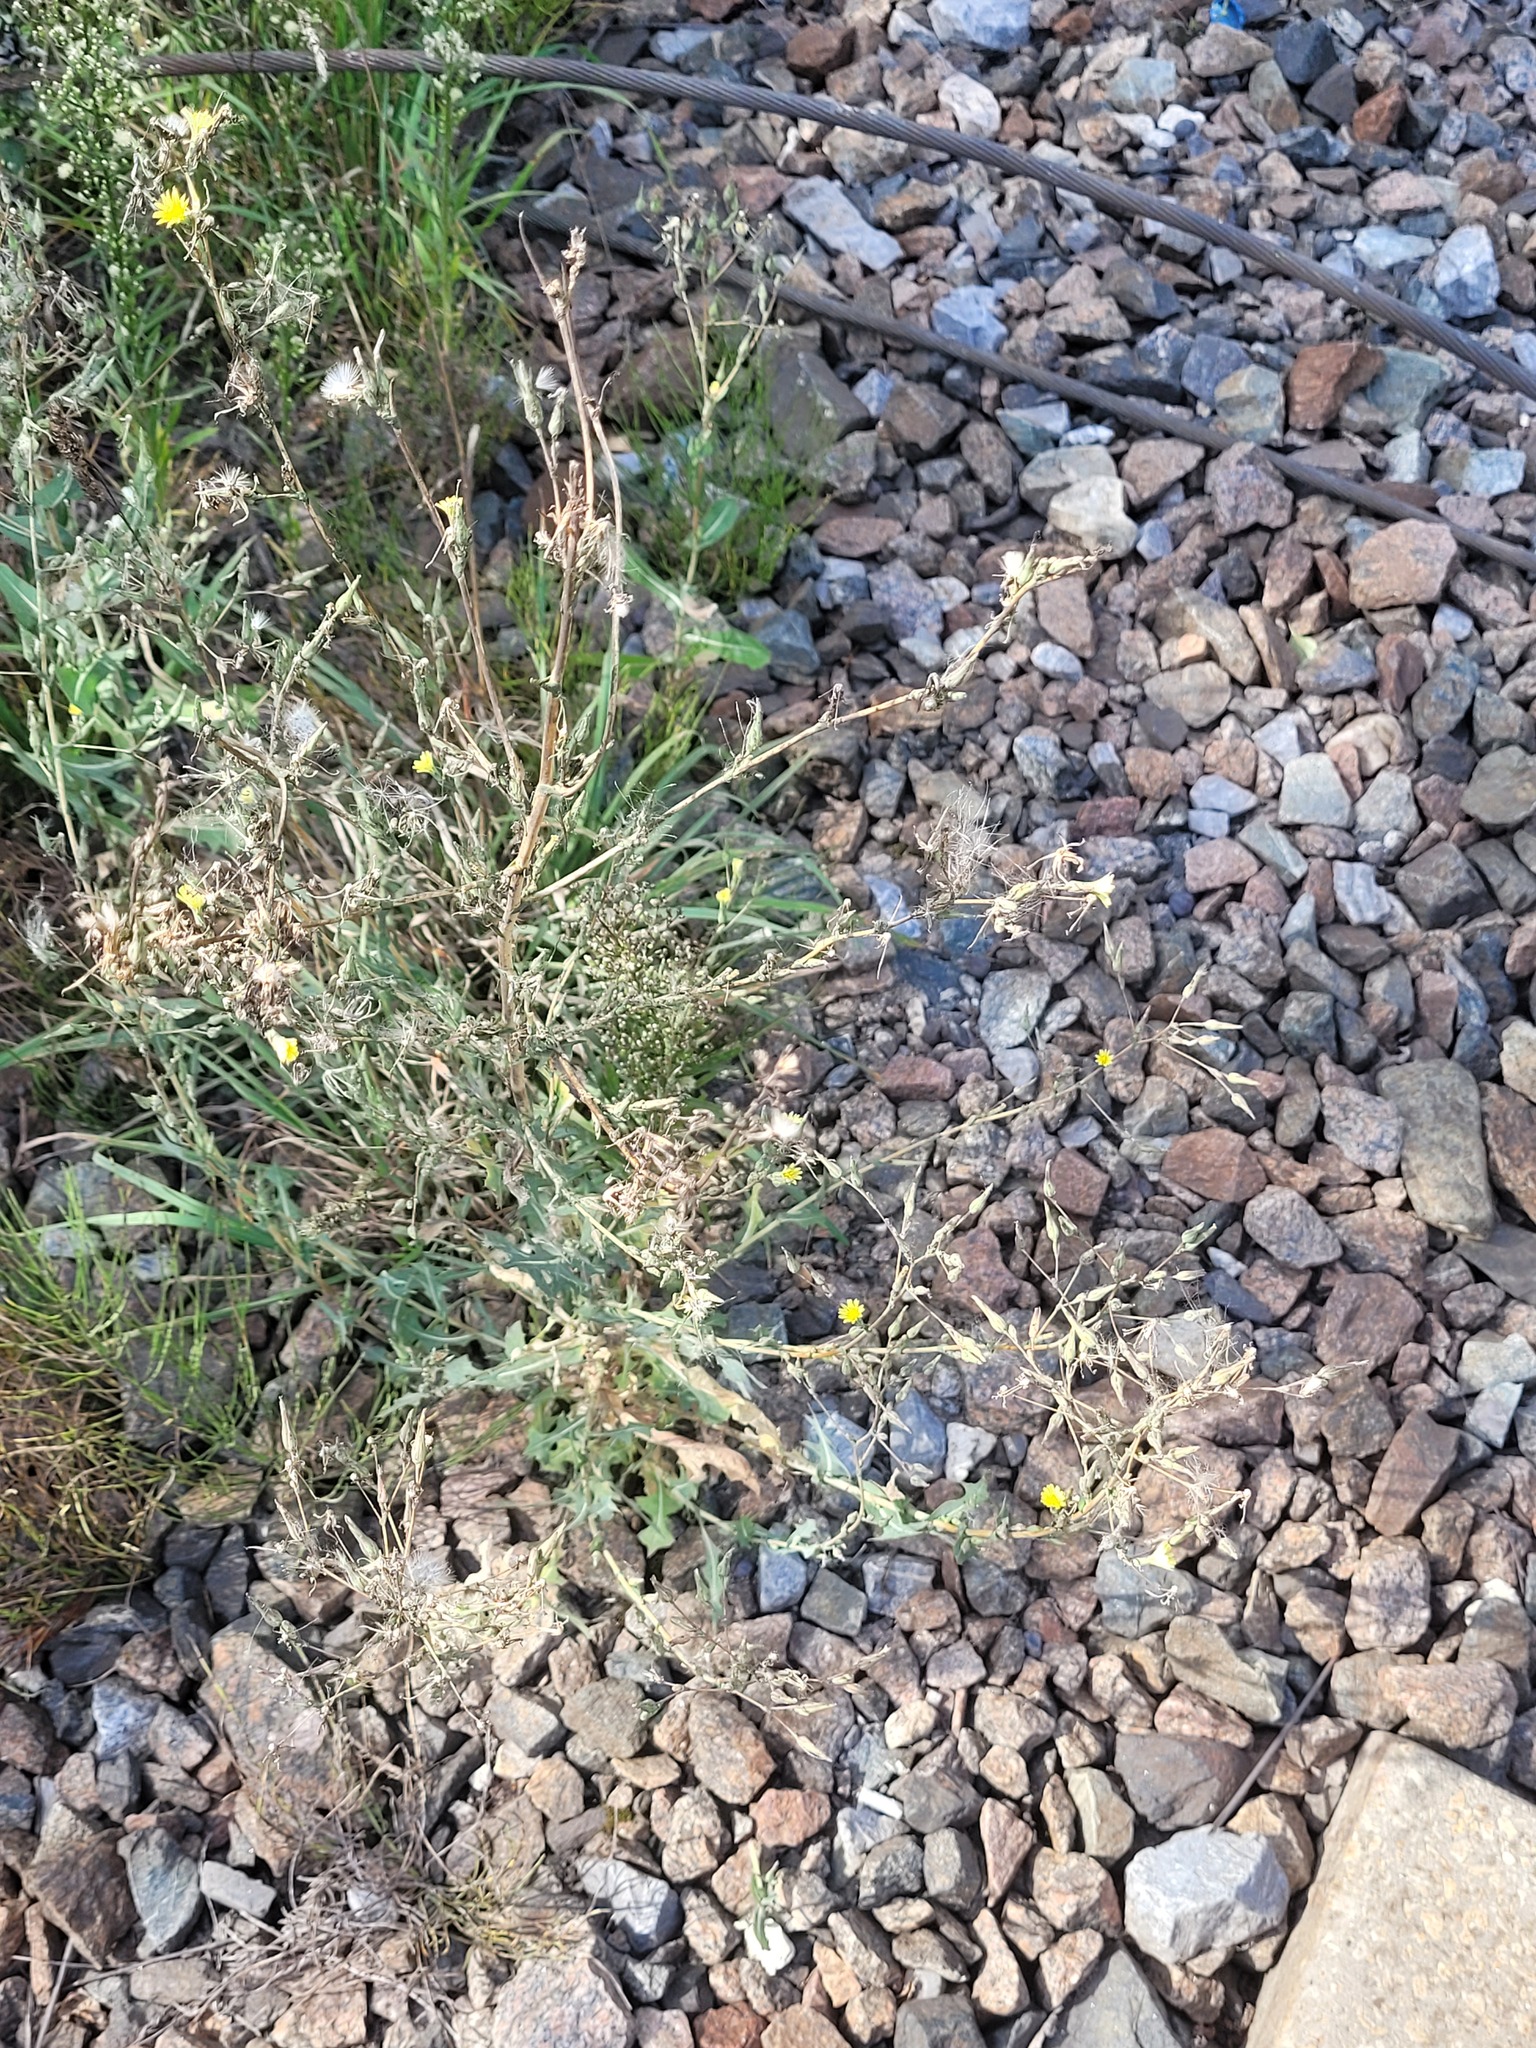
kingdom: Plantae
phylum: Tracheophyta
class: Magnoliopsida
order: Asterales
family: Asteraceae
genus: Lactuca
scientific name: Lactuca serriola
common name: Prickly lettuce
